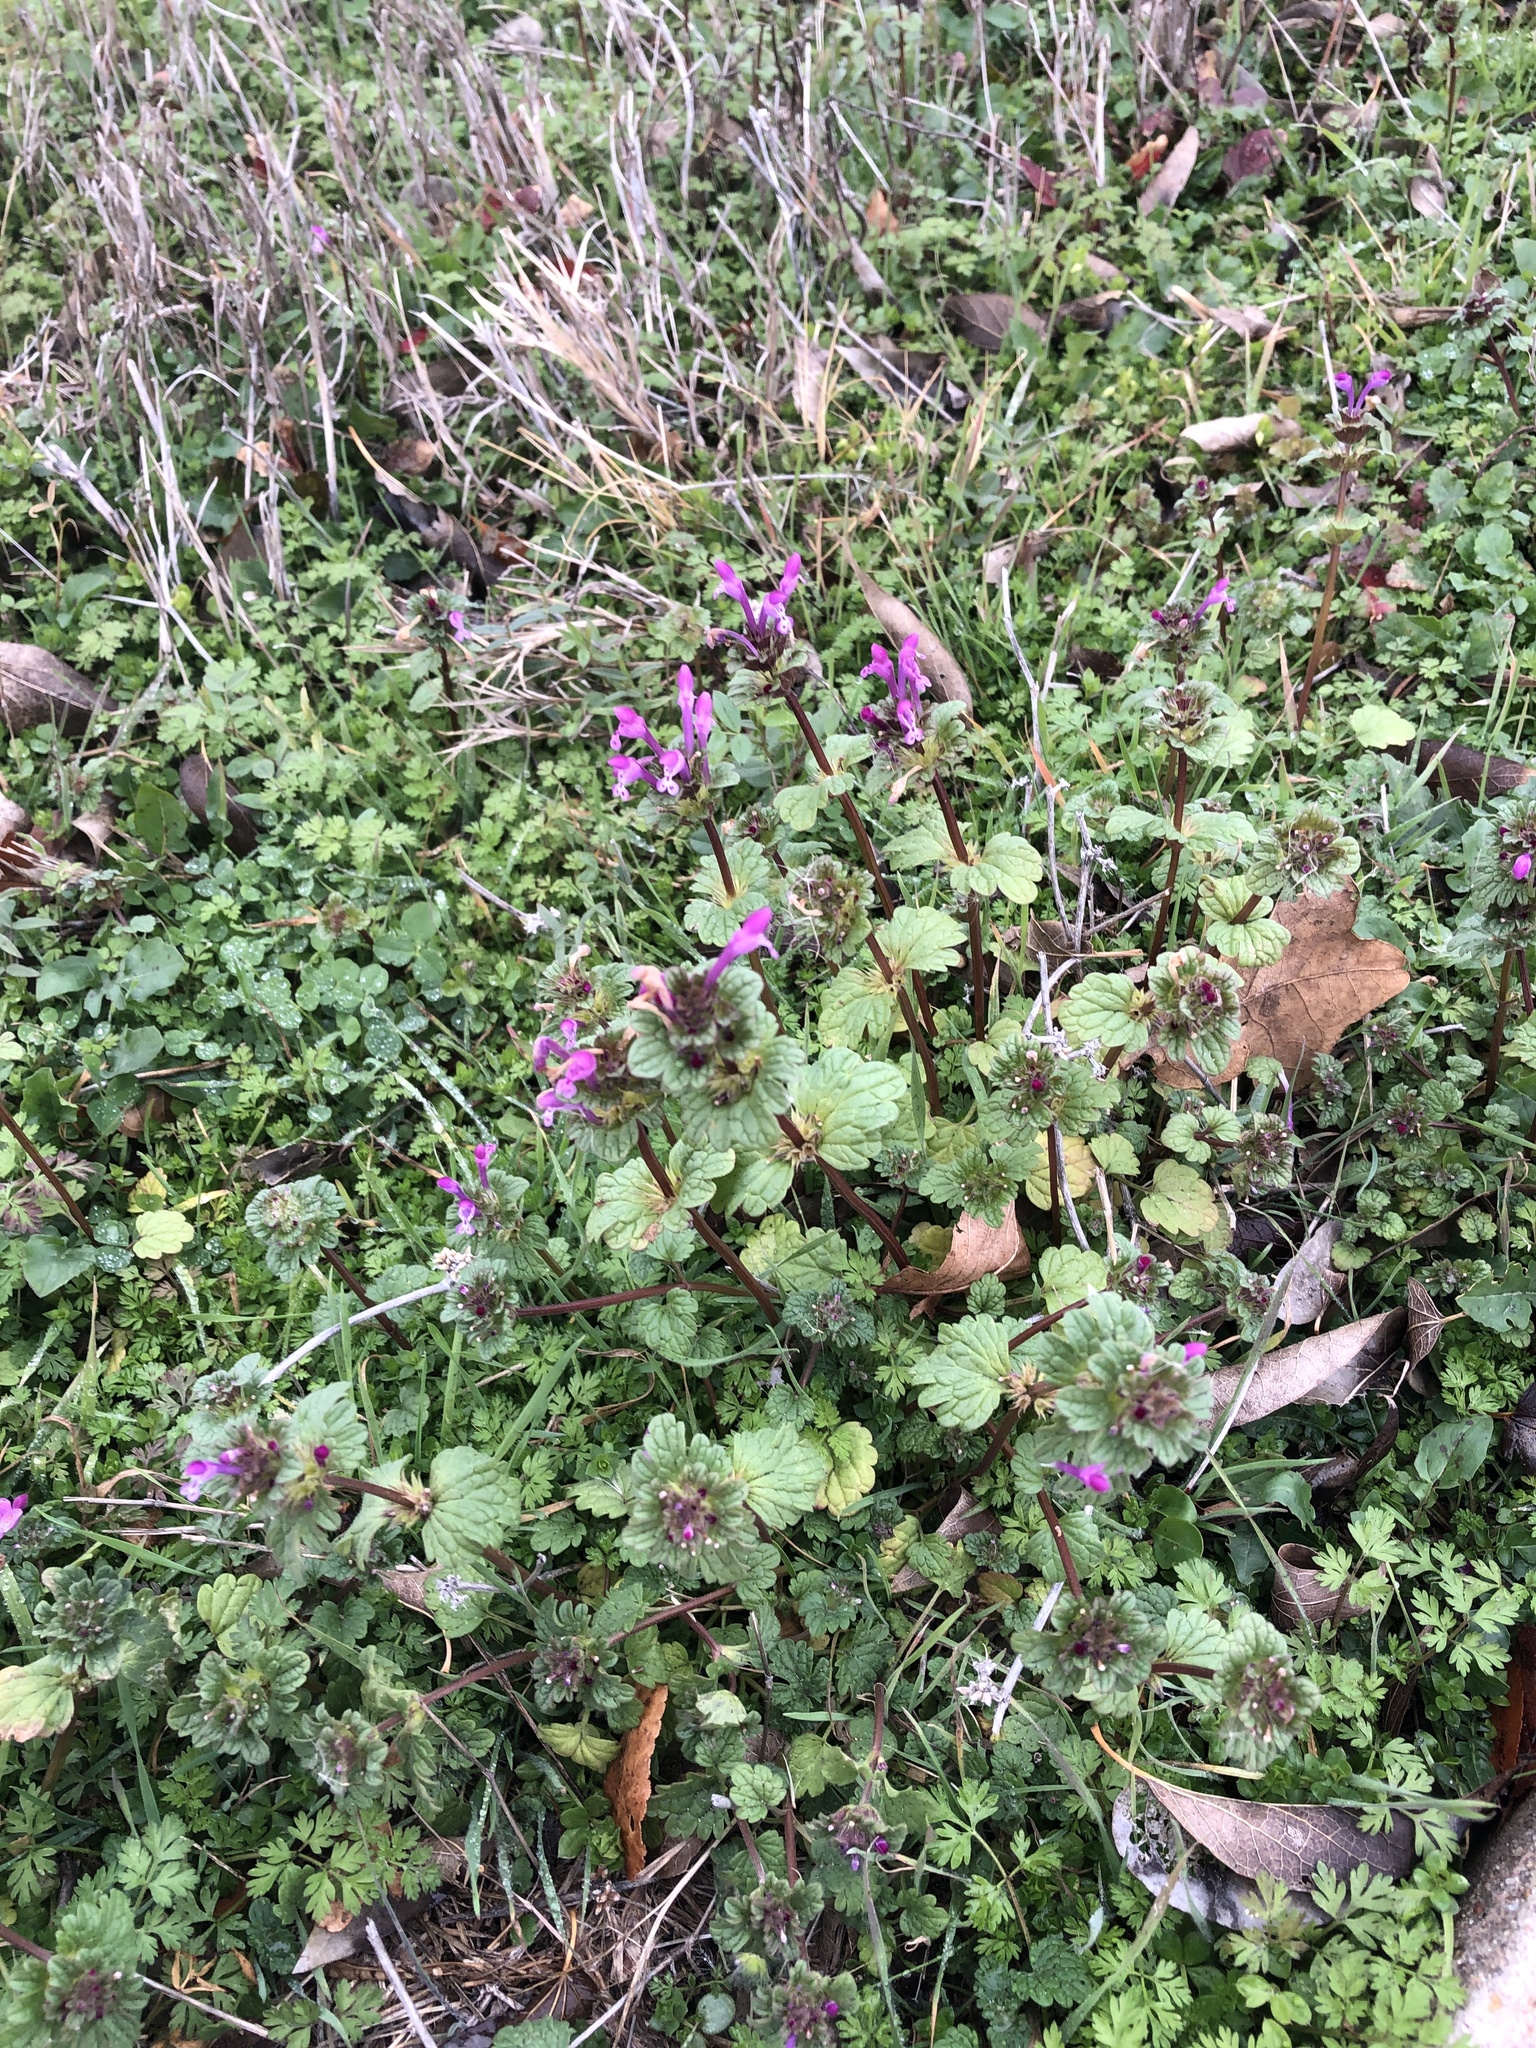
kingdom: Plantae
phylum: Tracheophyta
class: Magnoliopsida
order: Lamiales
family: Lamiaceae
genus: Lamium
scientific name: Lamium amplexicaule
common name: Henbit dead-nettle
